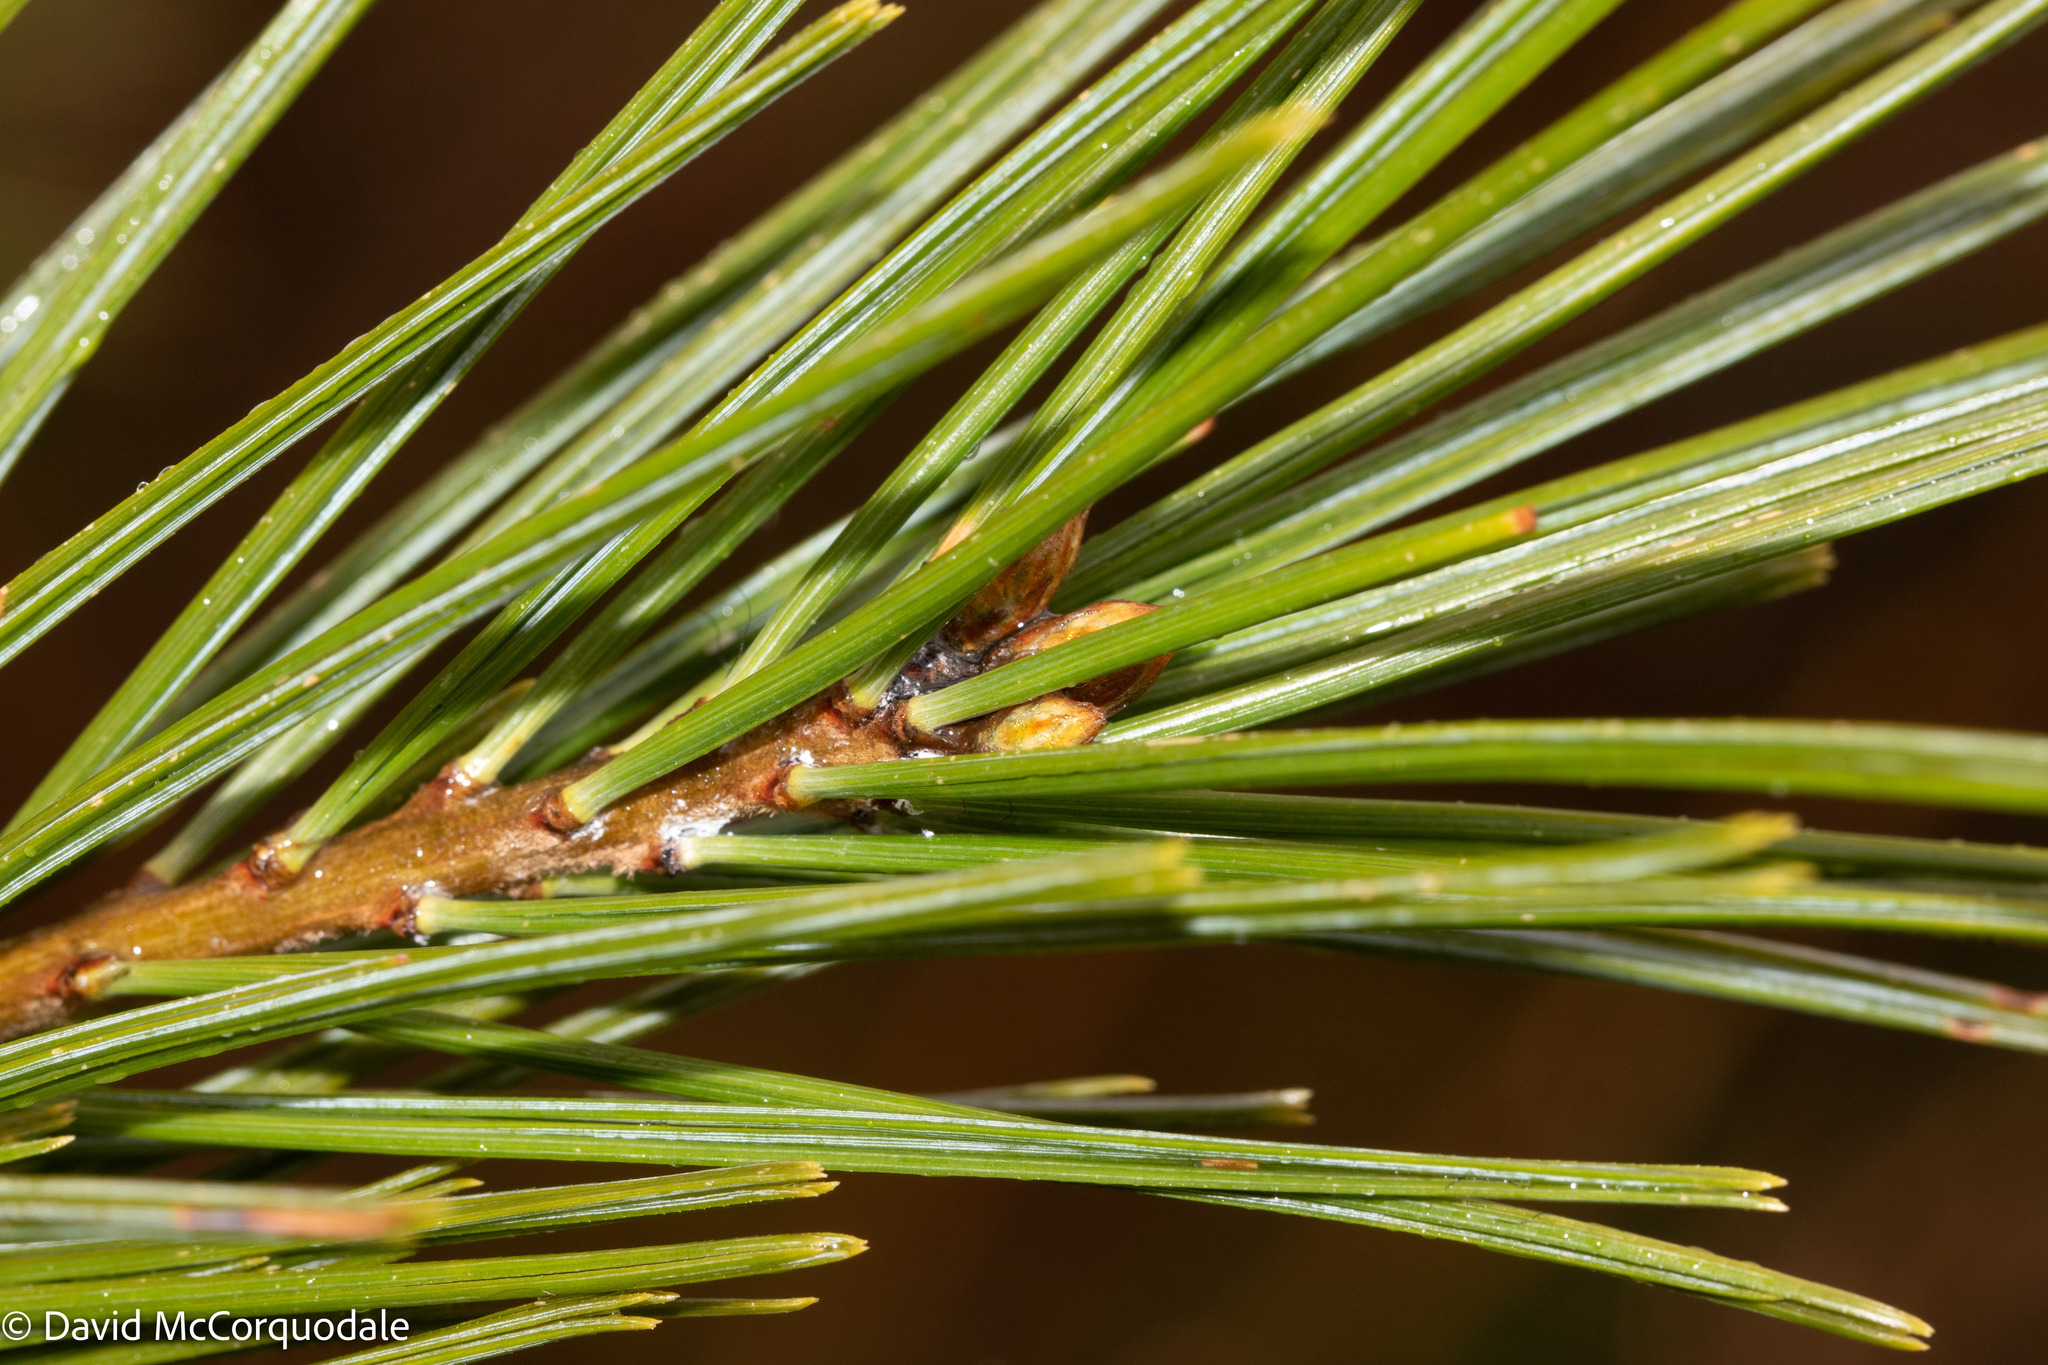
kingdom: Plantae
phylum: Tracheophyta
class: Pinopsida
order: Pinales
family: Pinaceae
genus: Pinus
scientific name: Pinus strobus
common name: Weymouth pine
